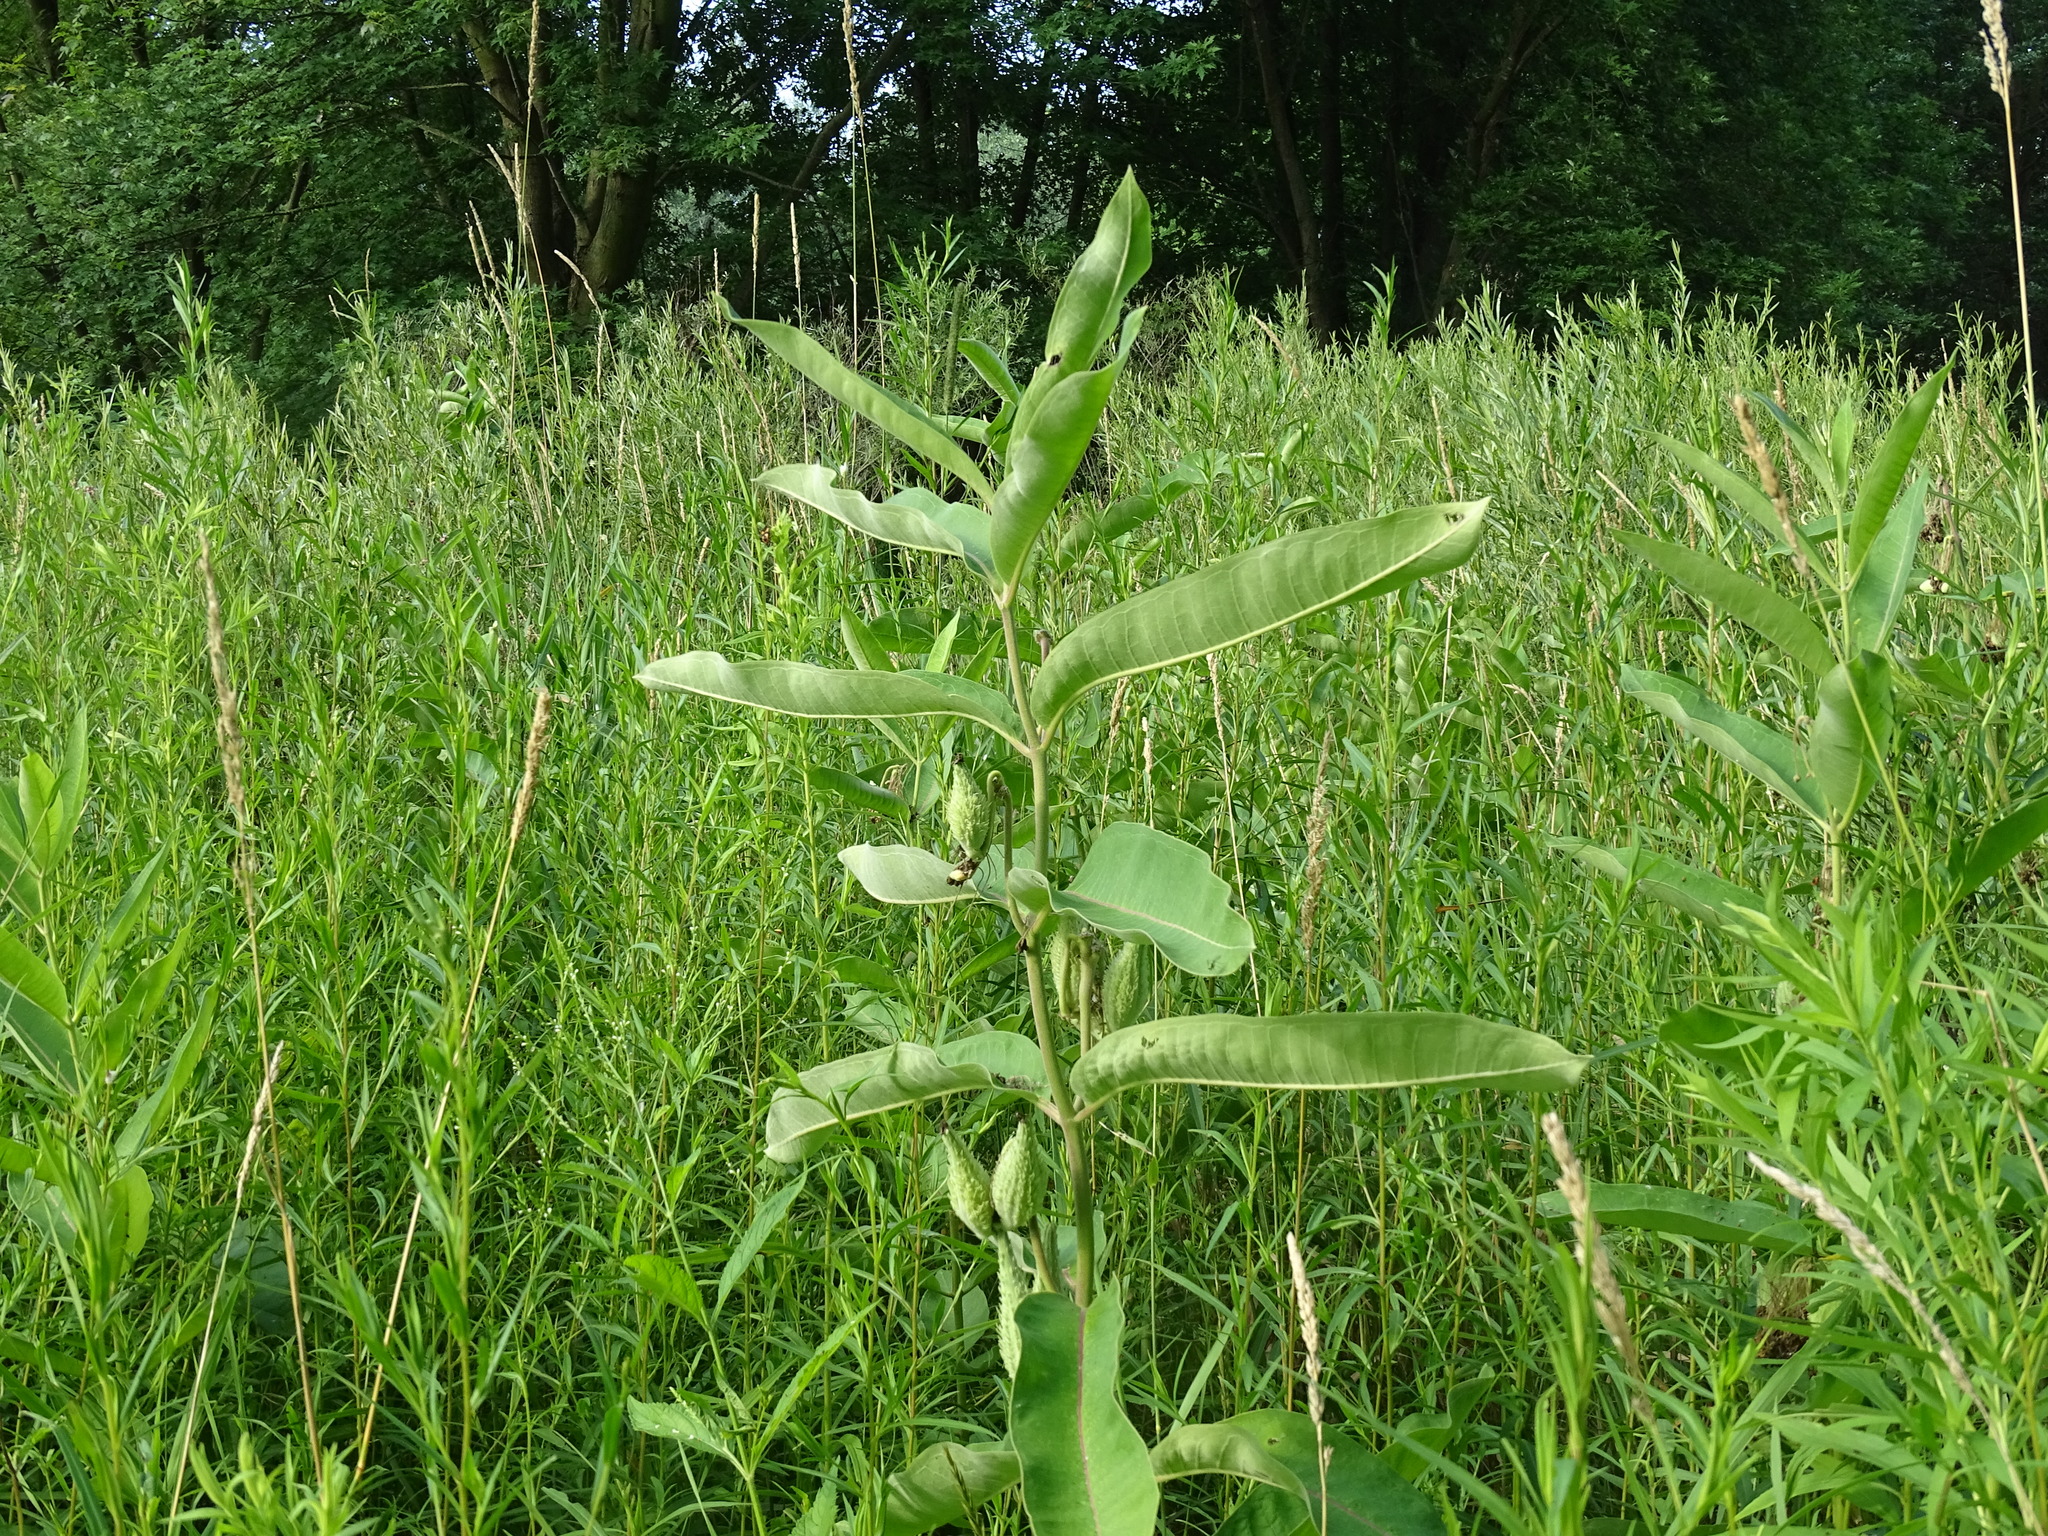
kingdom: Plantae
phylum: Tracheophyta
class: Magnoliopsida
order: Gentianales
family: Apocynaceae
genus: Asclepias
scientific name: Asclepias syriaca
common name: Common milkweed
